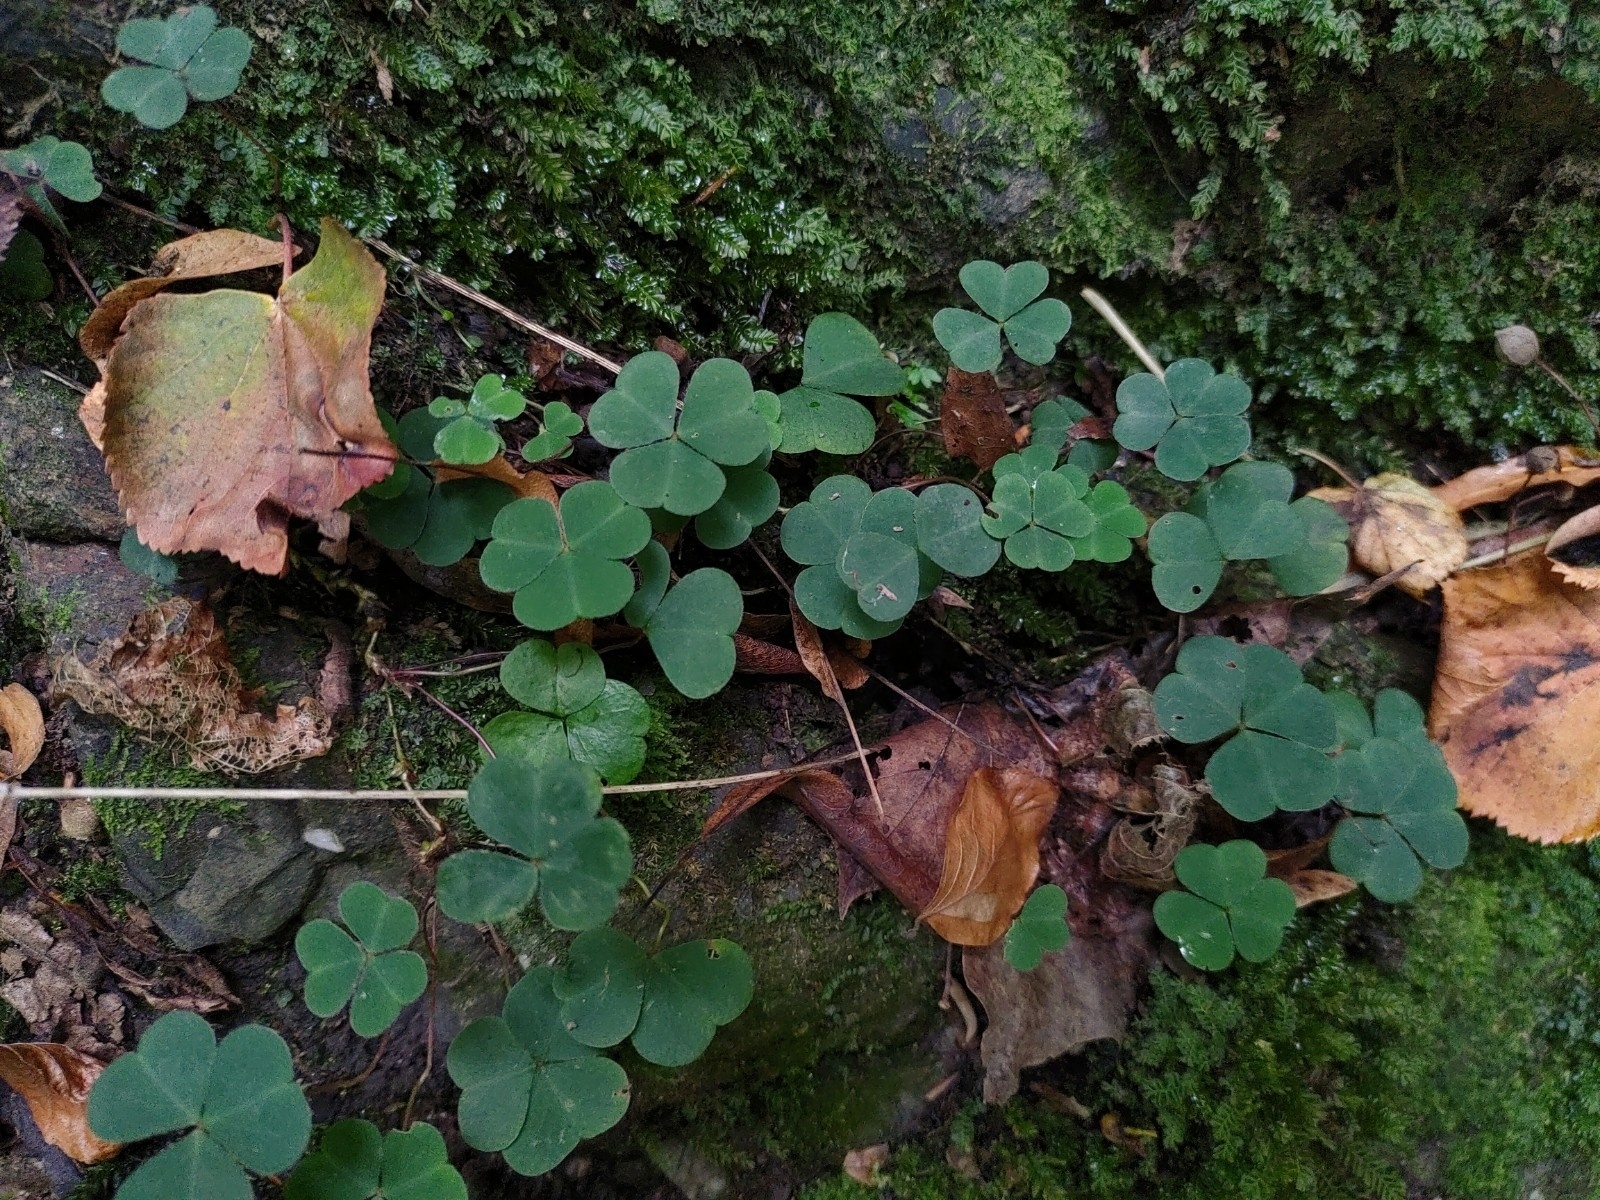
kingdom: Plantae
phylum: Tracheophyta
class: Magnoliopsida
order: Oxalidales
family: Oxalidaceae
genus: Oxalis
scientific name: Oxalis acetosella
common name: Wood-sorrel
